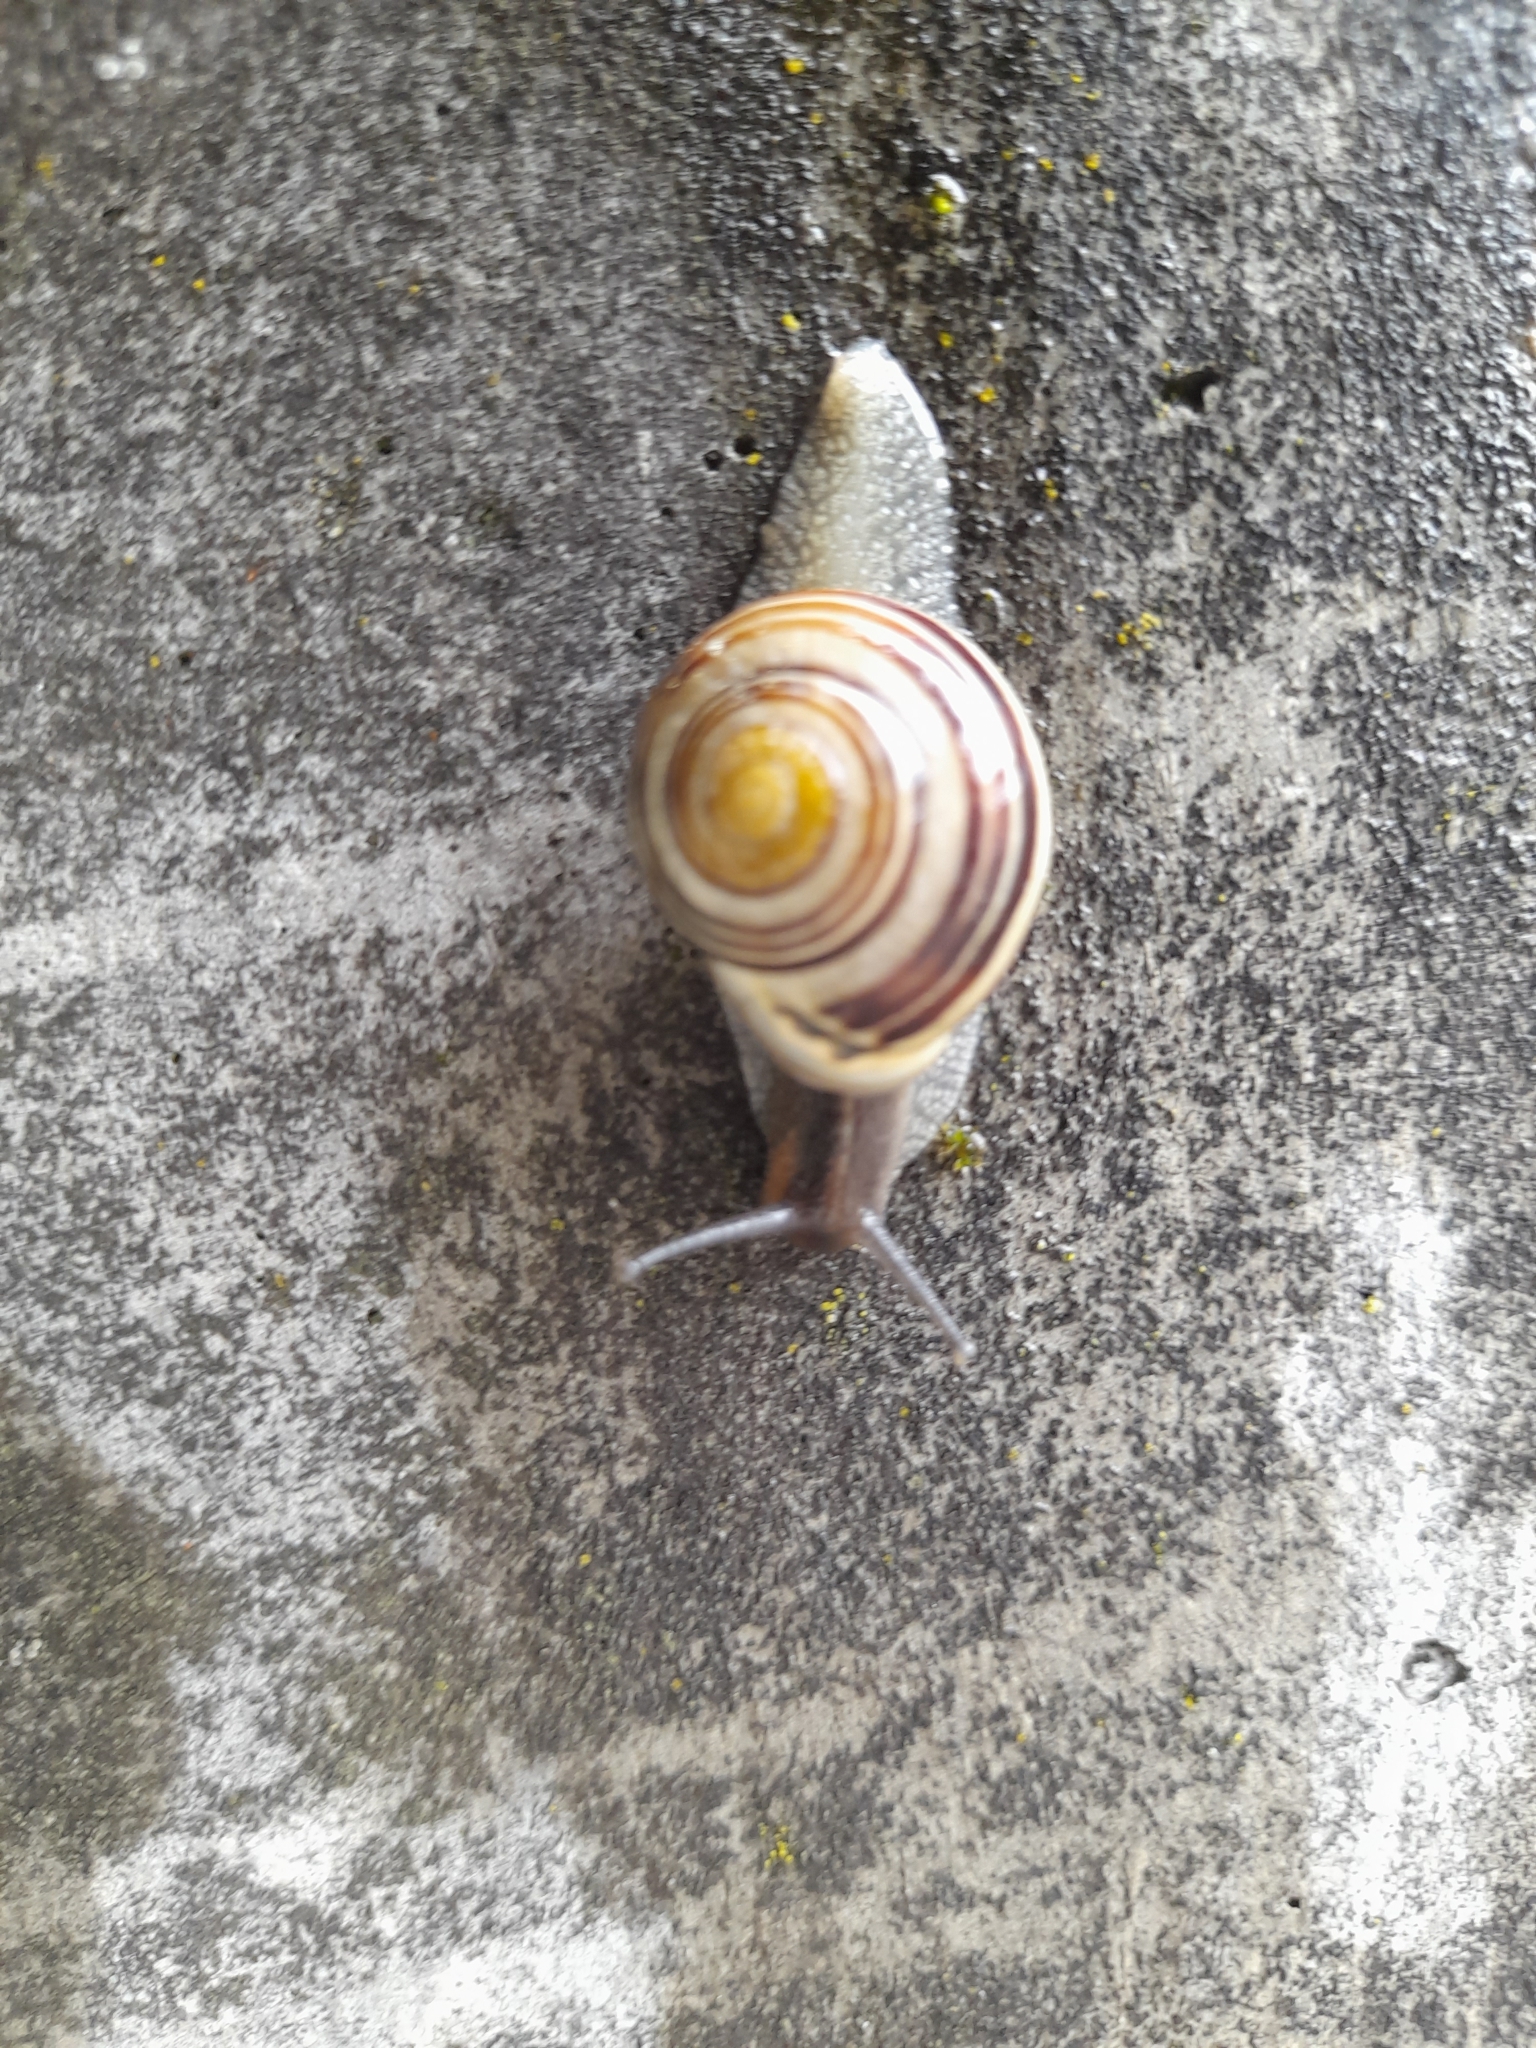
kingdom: Animalia
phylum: Mollusca
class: Gastropoda
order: Stylommatophora
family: Helicidae
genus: Cepaea
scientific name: Cepaea hortensis
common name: White-lip gardensnail
